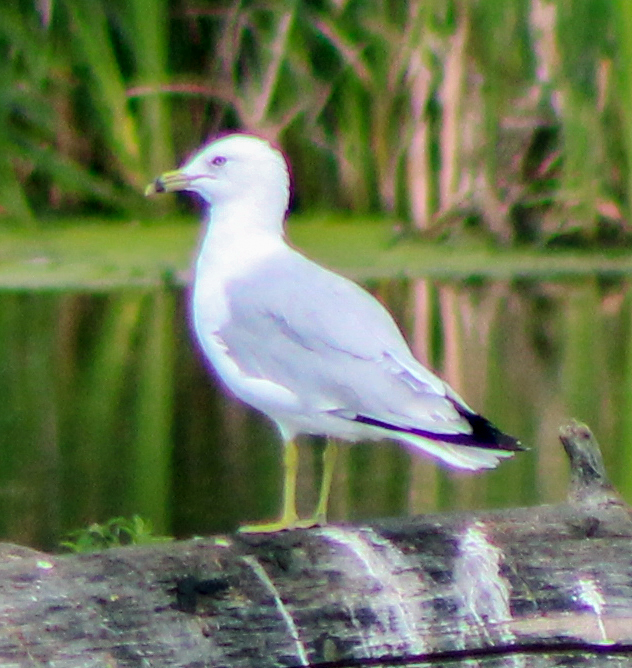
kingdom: Animalia
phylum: Chordata
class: Aves
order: Charadriiformes
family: Laridae
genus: Larus
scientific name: Larus delawarensis
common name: Ring-billed gull
